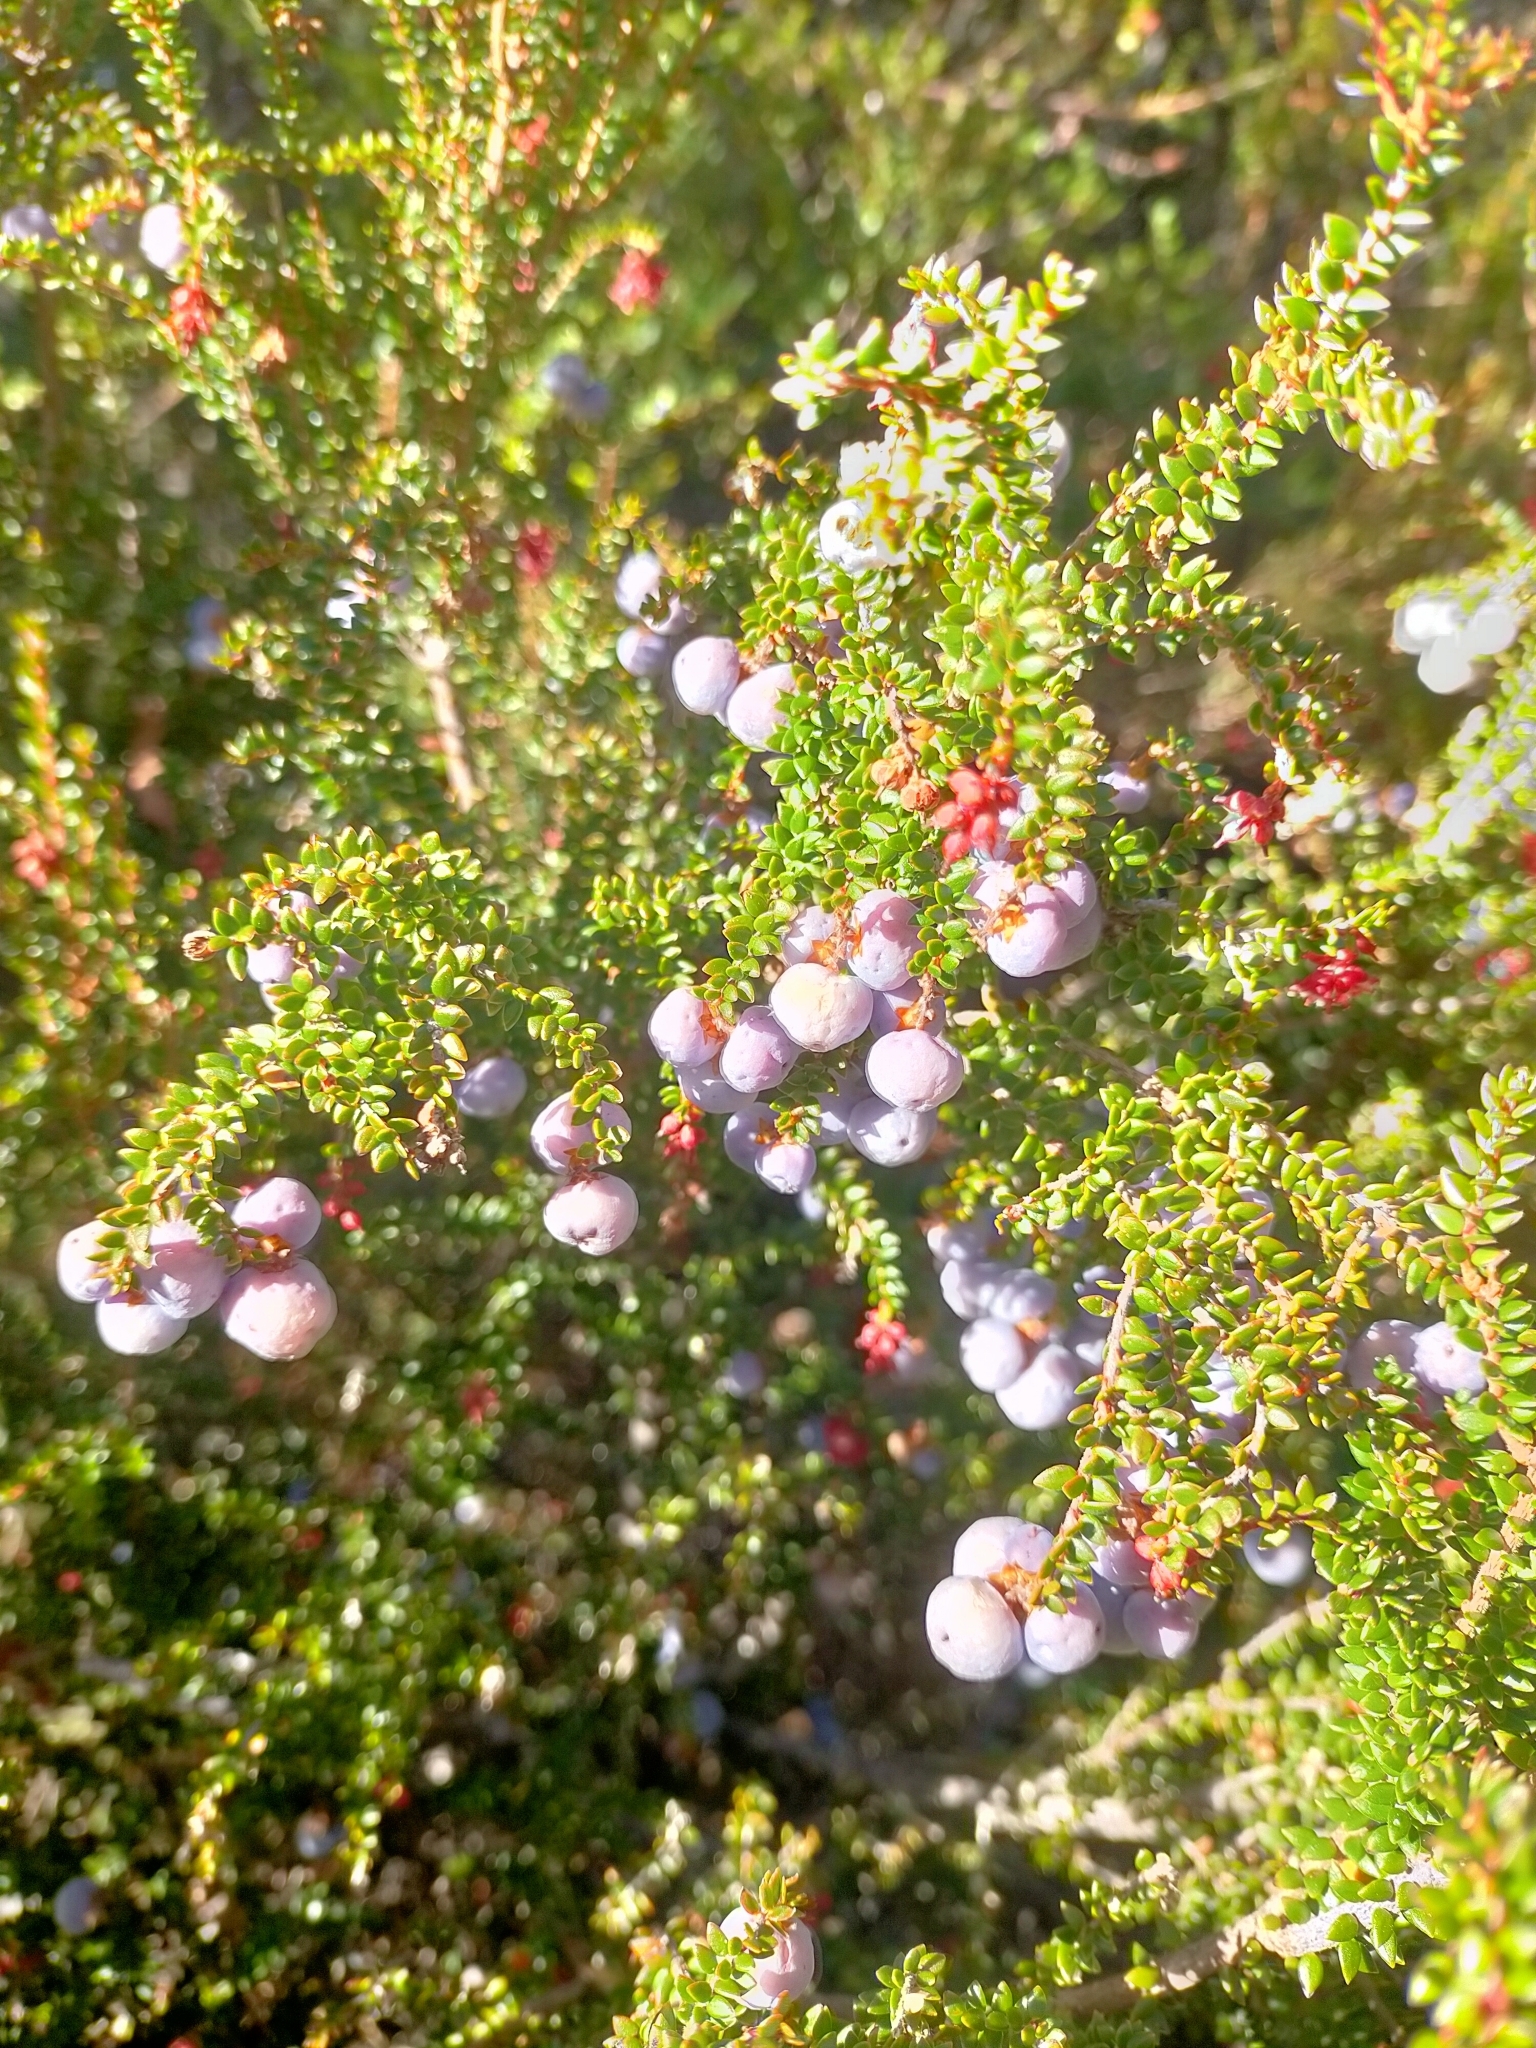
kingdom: Plantae
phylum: Tracheophyta
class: Magnoliopsida
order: Ericales
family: Ericaceae
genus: Trochocarpa
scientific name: Trochocarpa thymifolia
